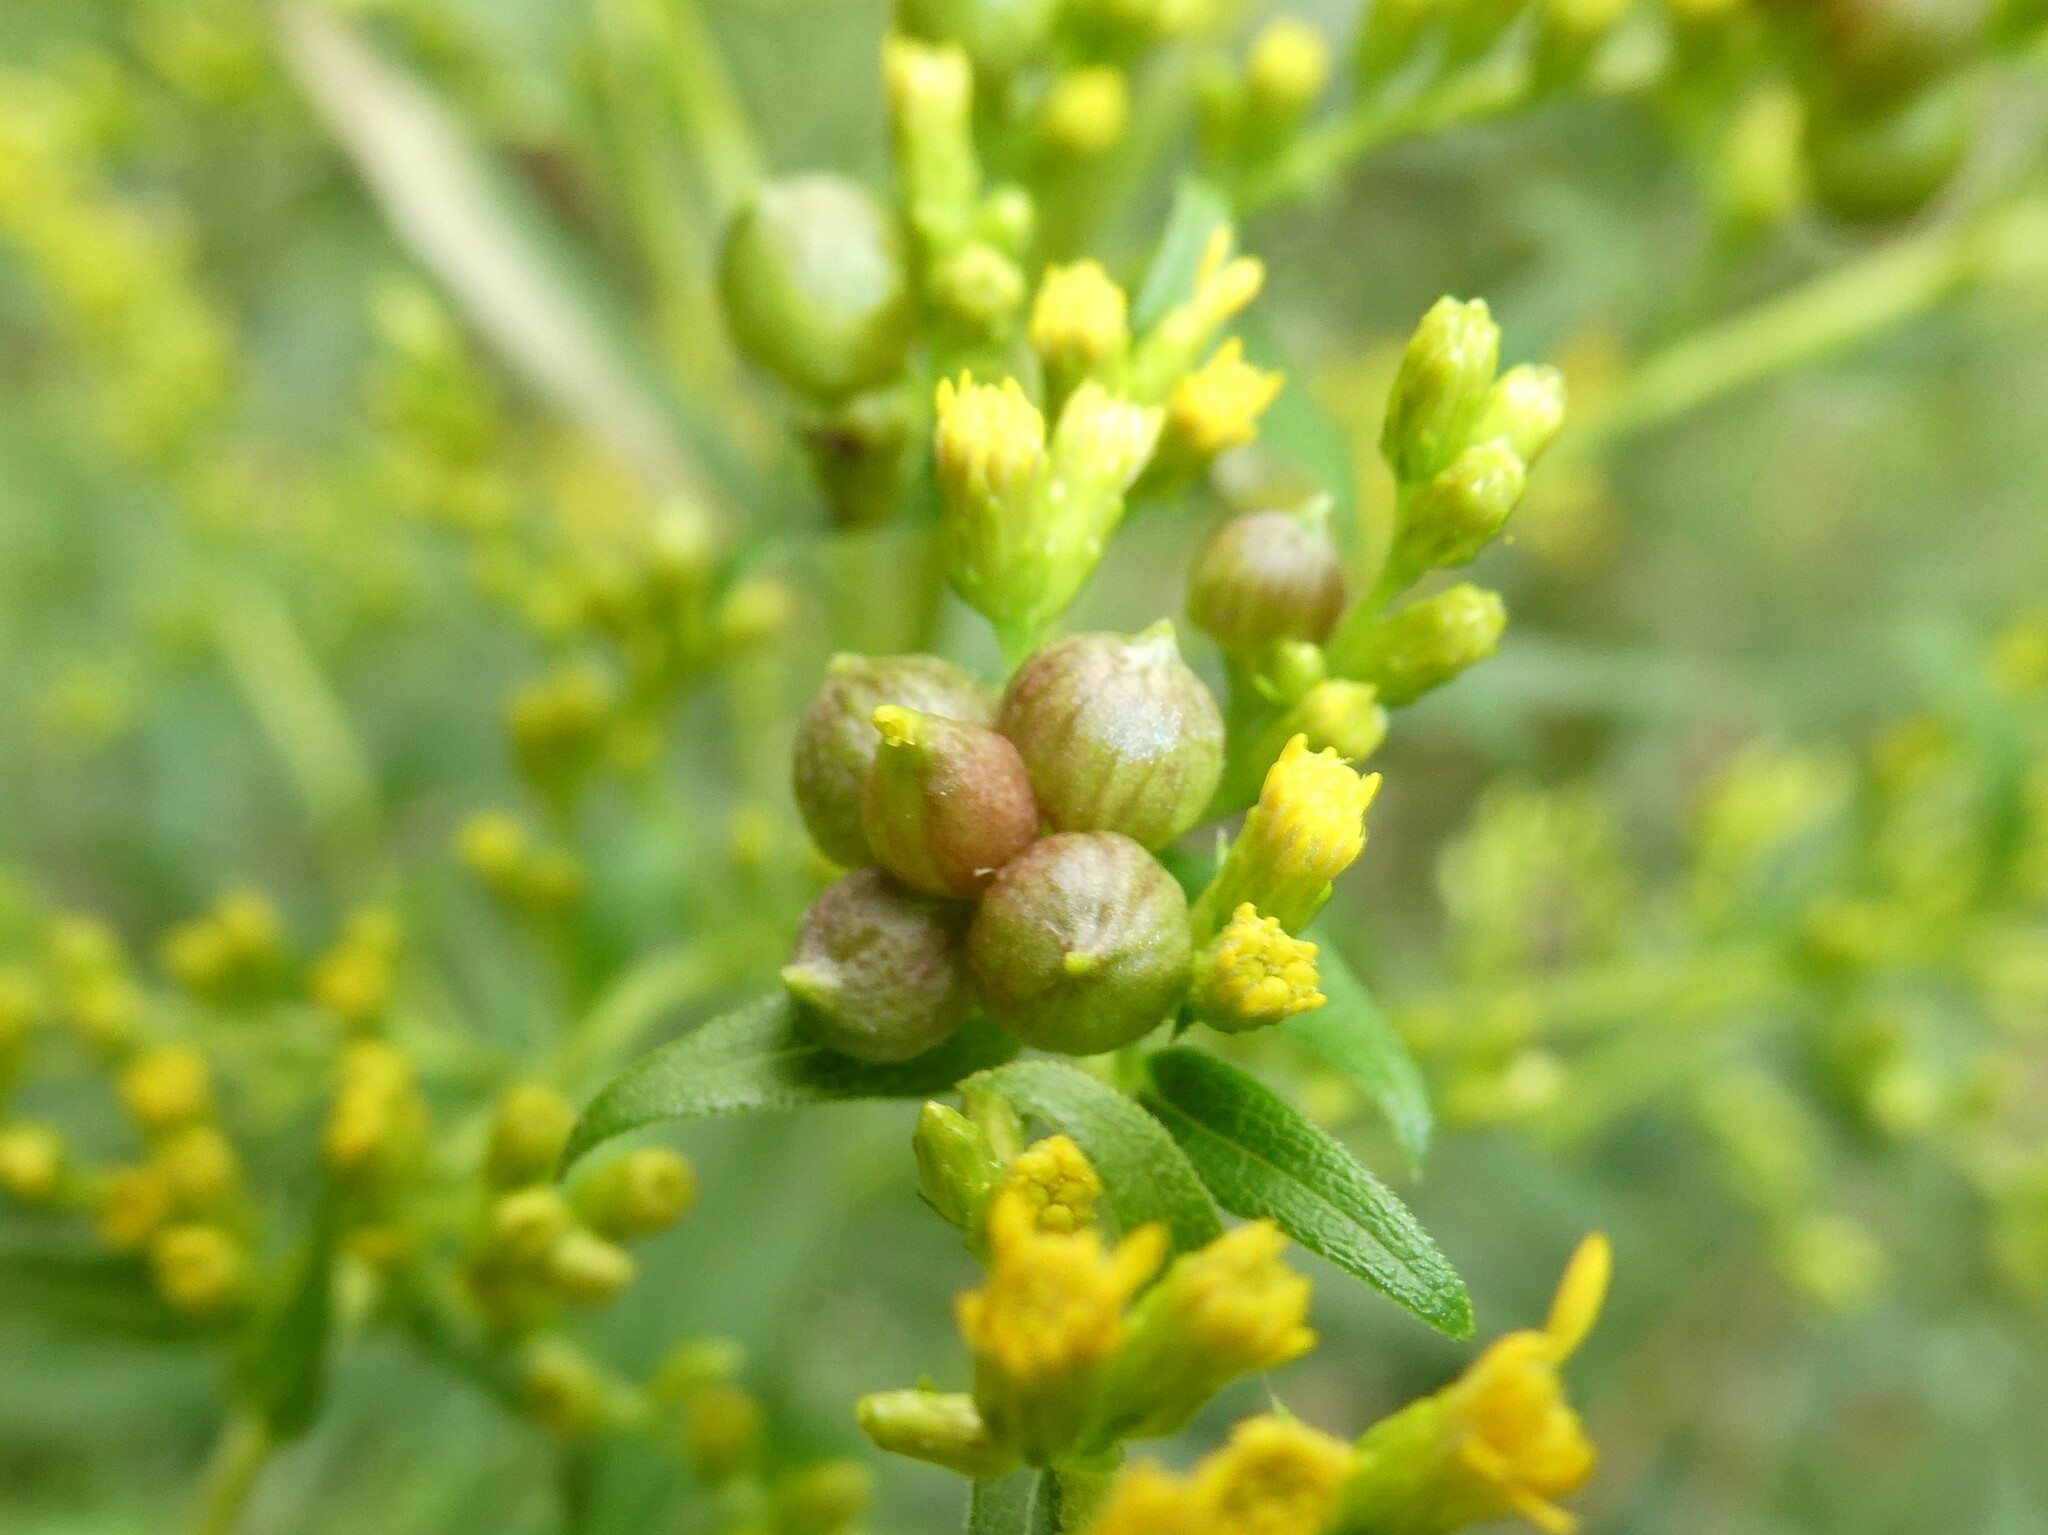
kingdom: Animalia
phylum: Arthropoda
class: Insecta
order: Diptera
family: Cecidomyiidae
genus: Schizomyia
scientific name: Schizomyia racemicola
